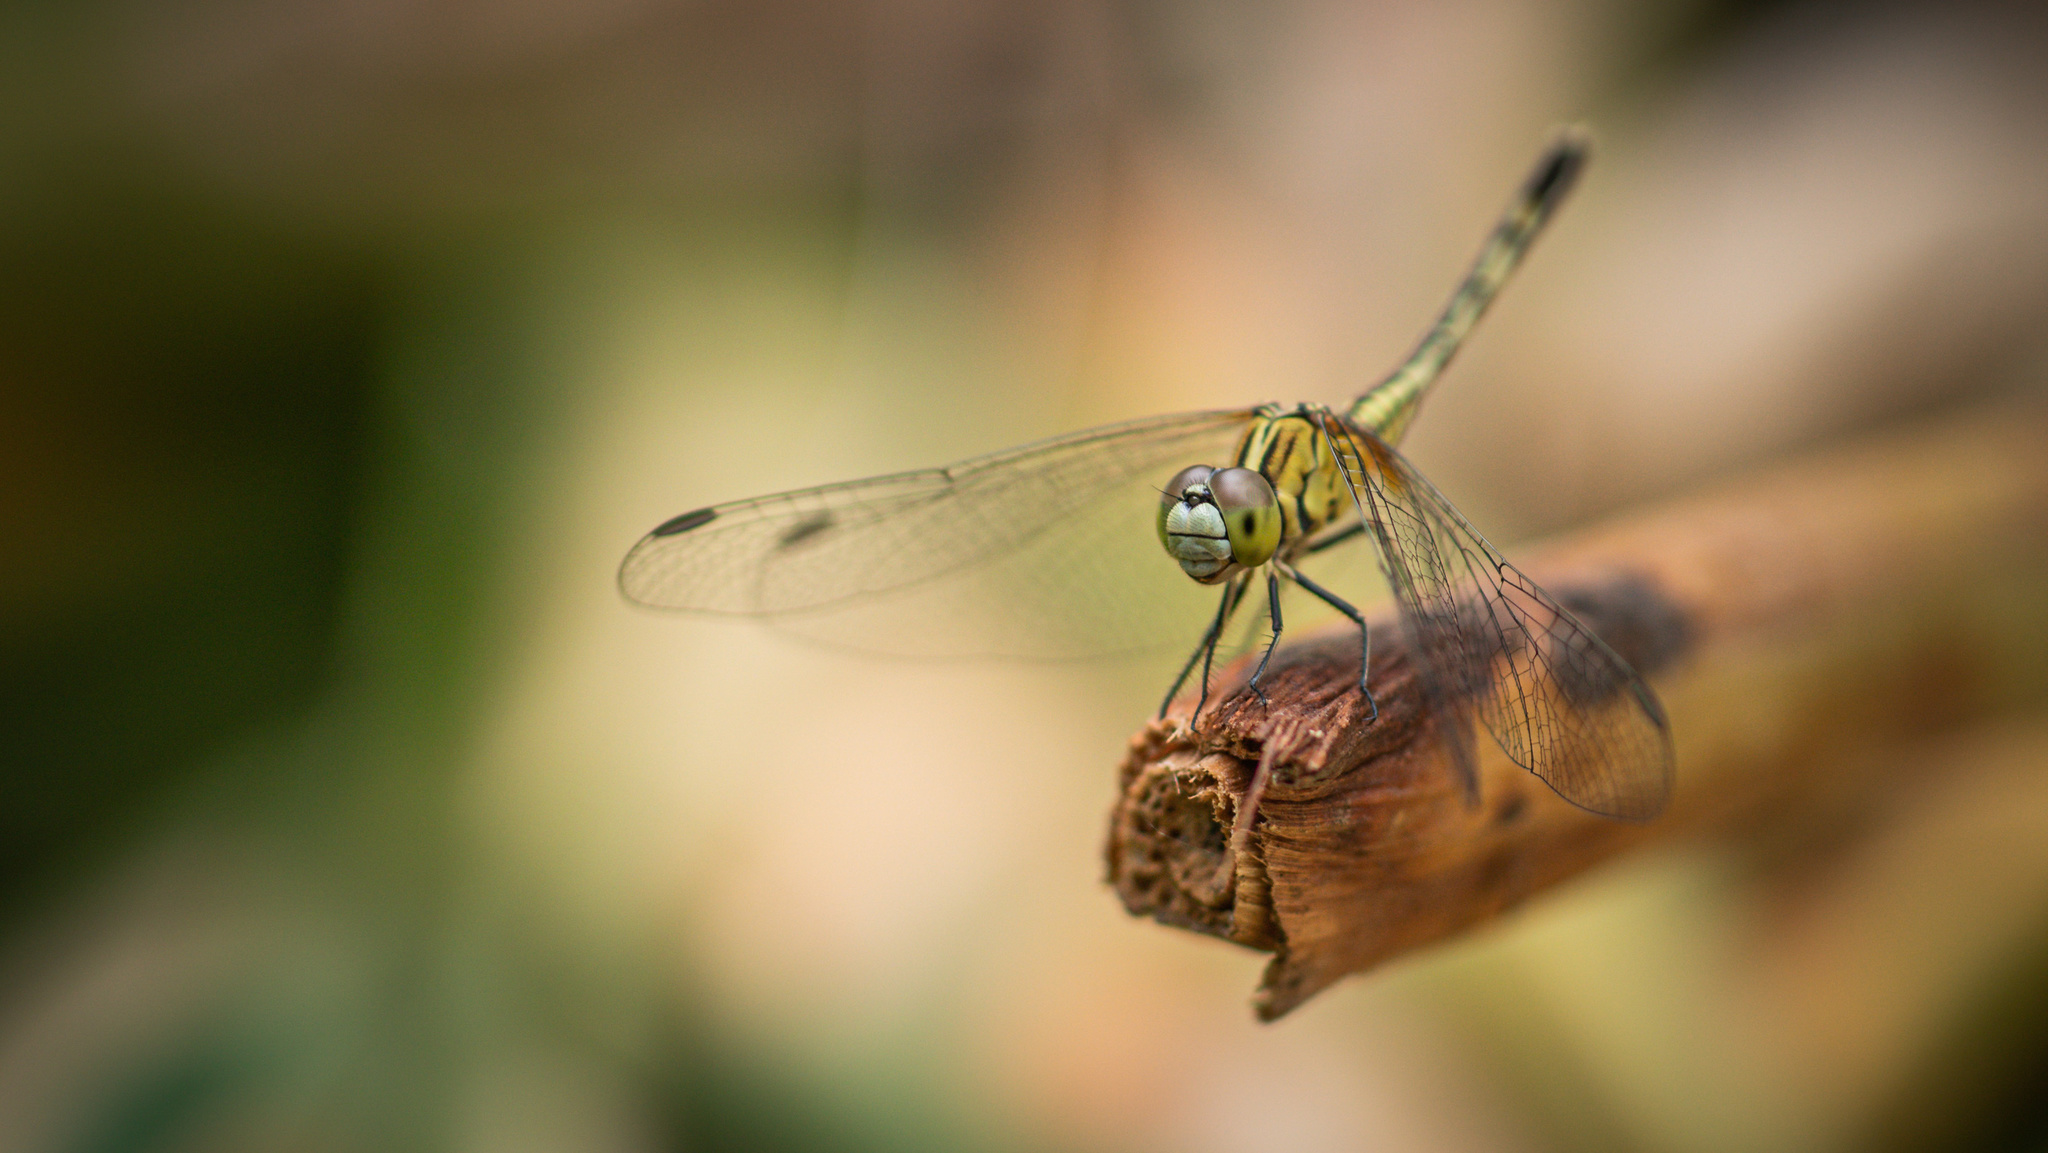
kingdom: Animalia
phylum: Arthropoda
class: Insecta
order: Odonata
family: Libellulidae
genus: Diplacodes
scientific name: Diplacodes trivialis
